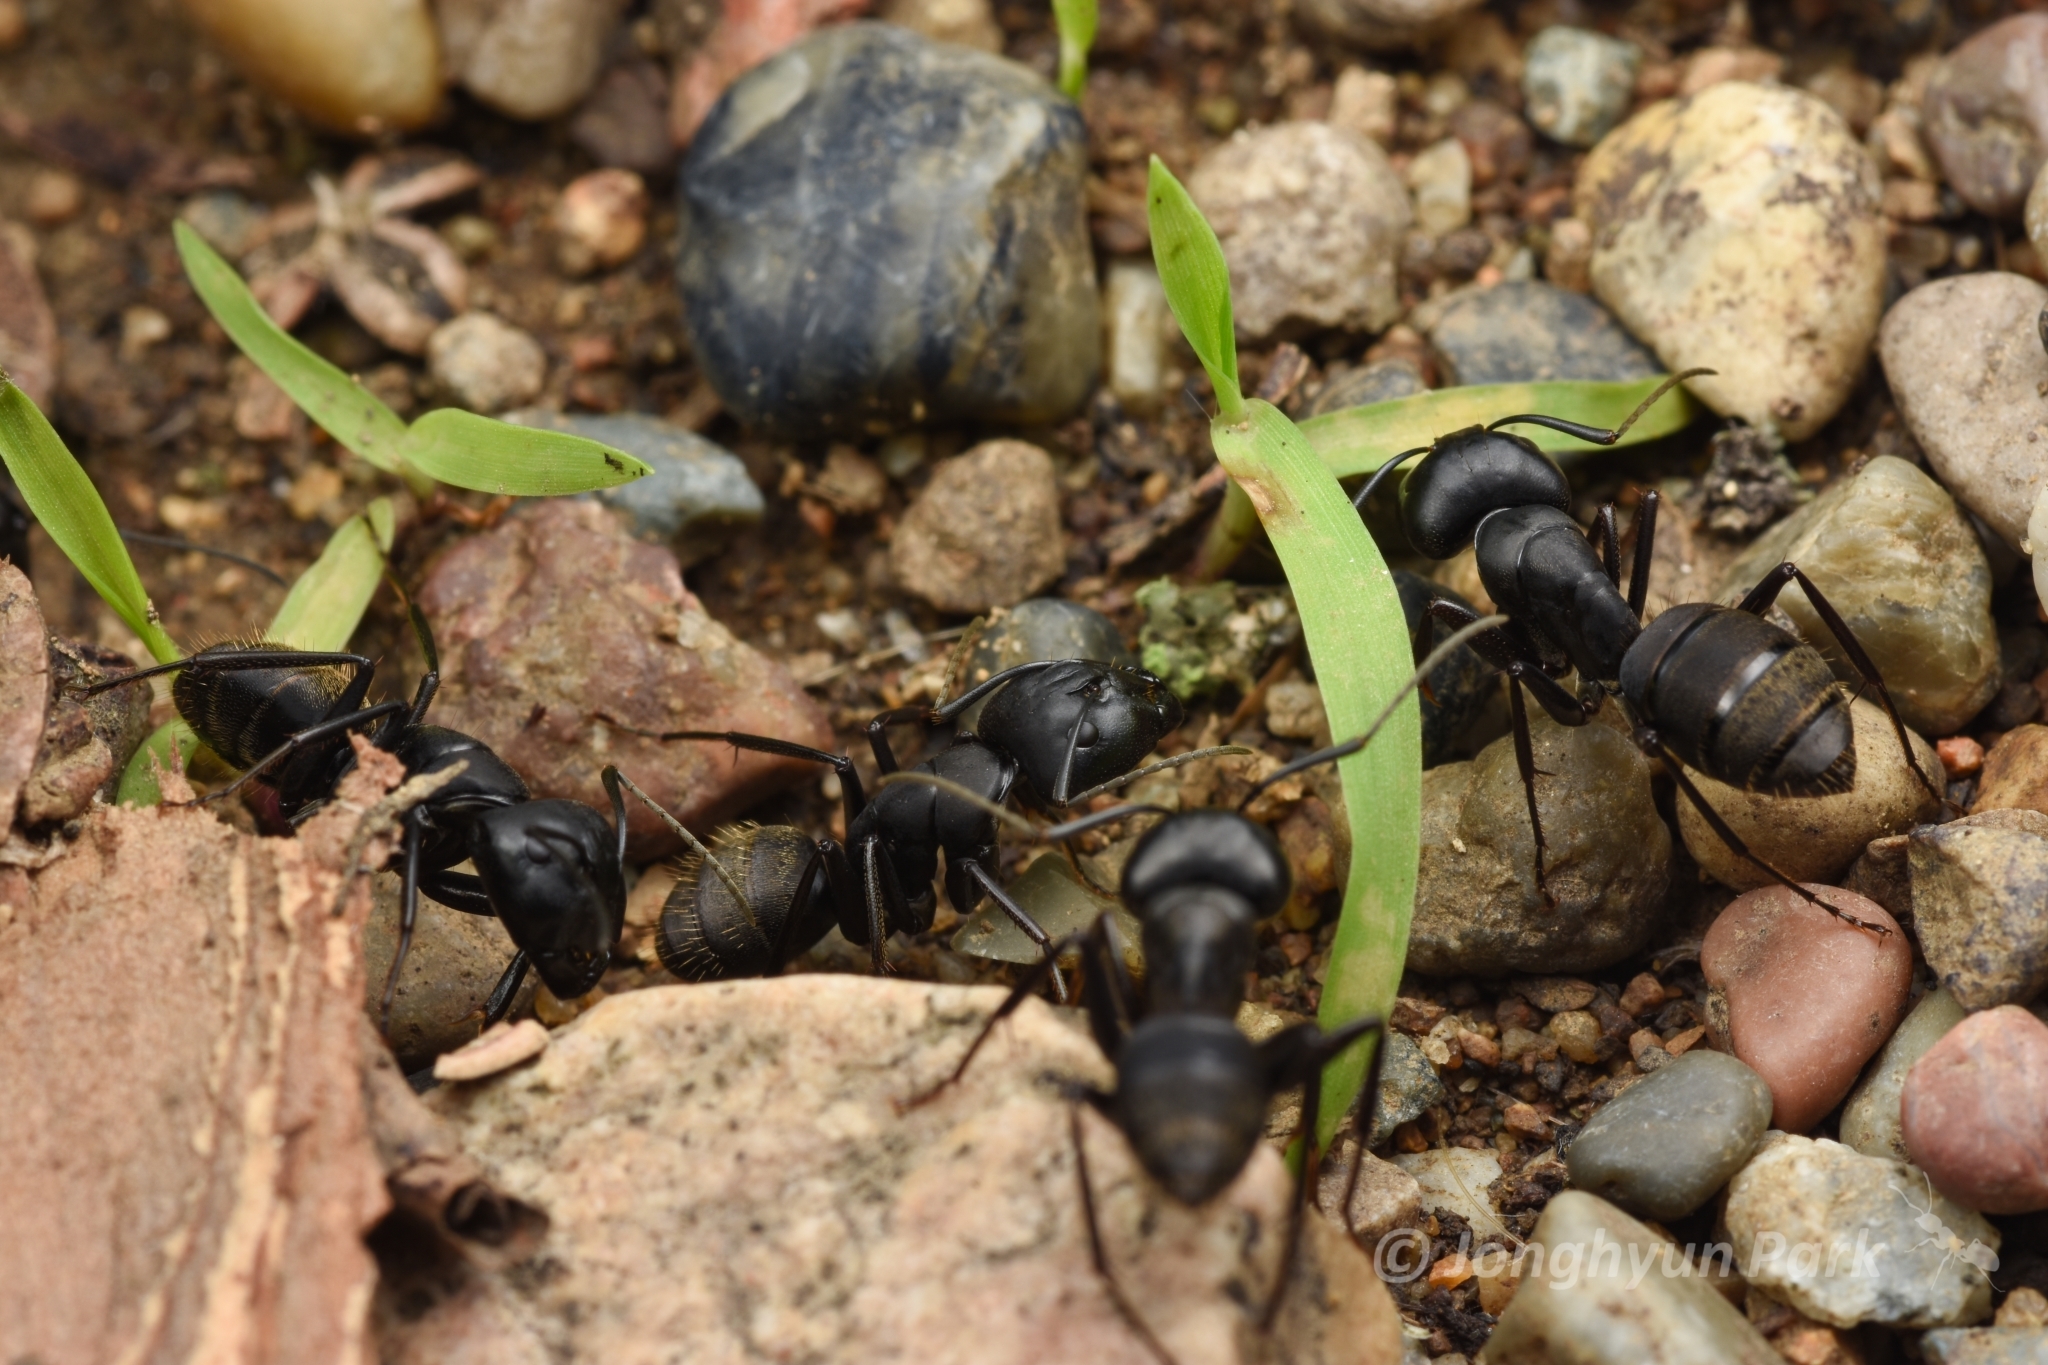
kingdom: Animalia
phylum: Arthropoda
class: Insecta
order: Hymenoptera
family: Formicidae
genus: Camponotus
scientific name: Camponotus japonicus
